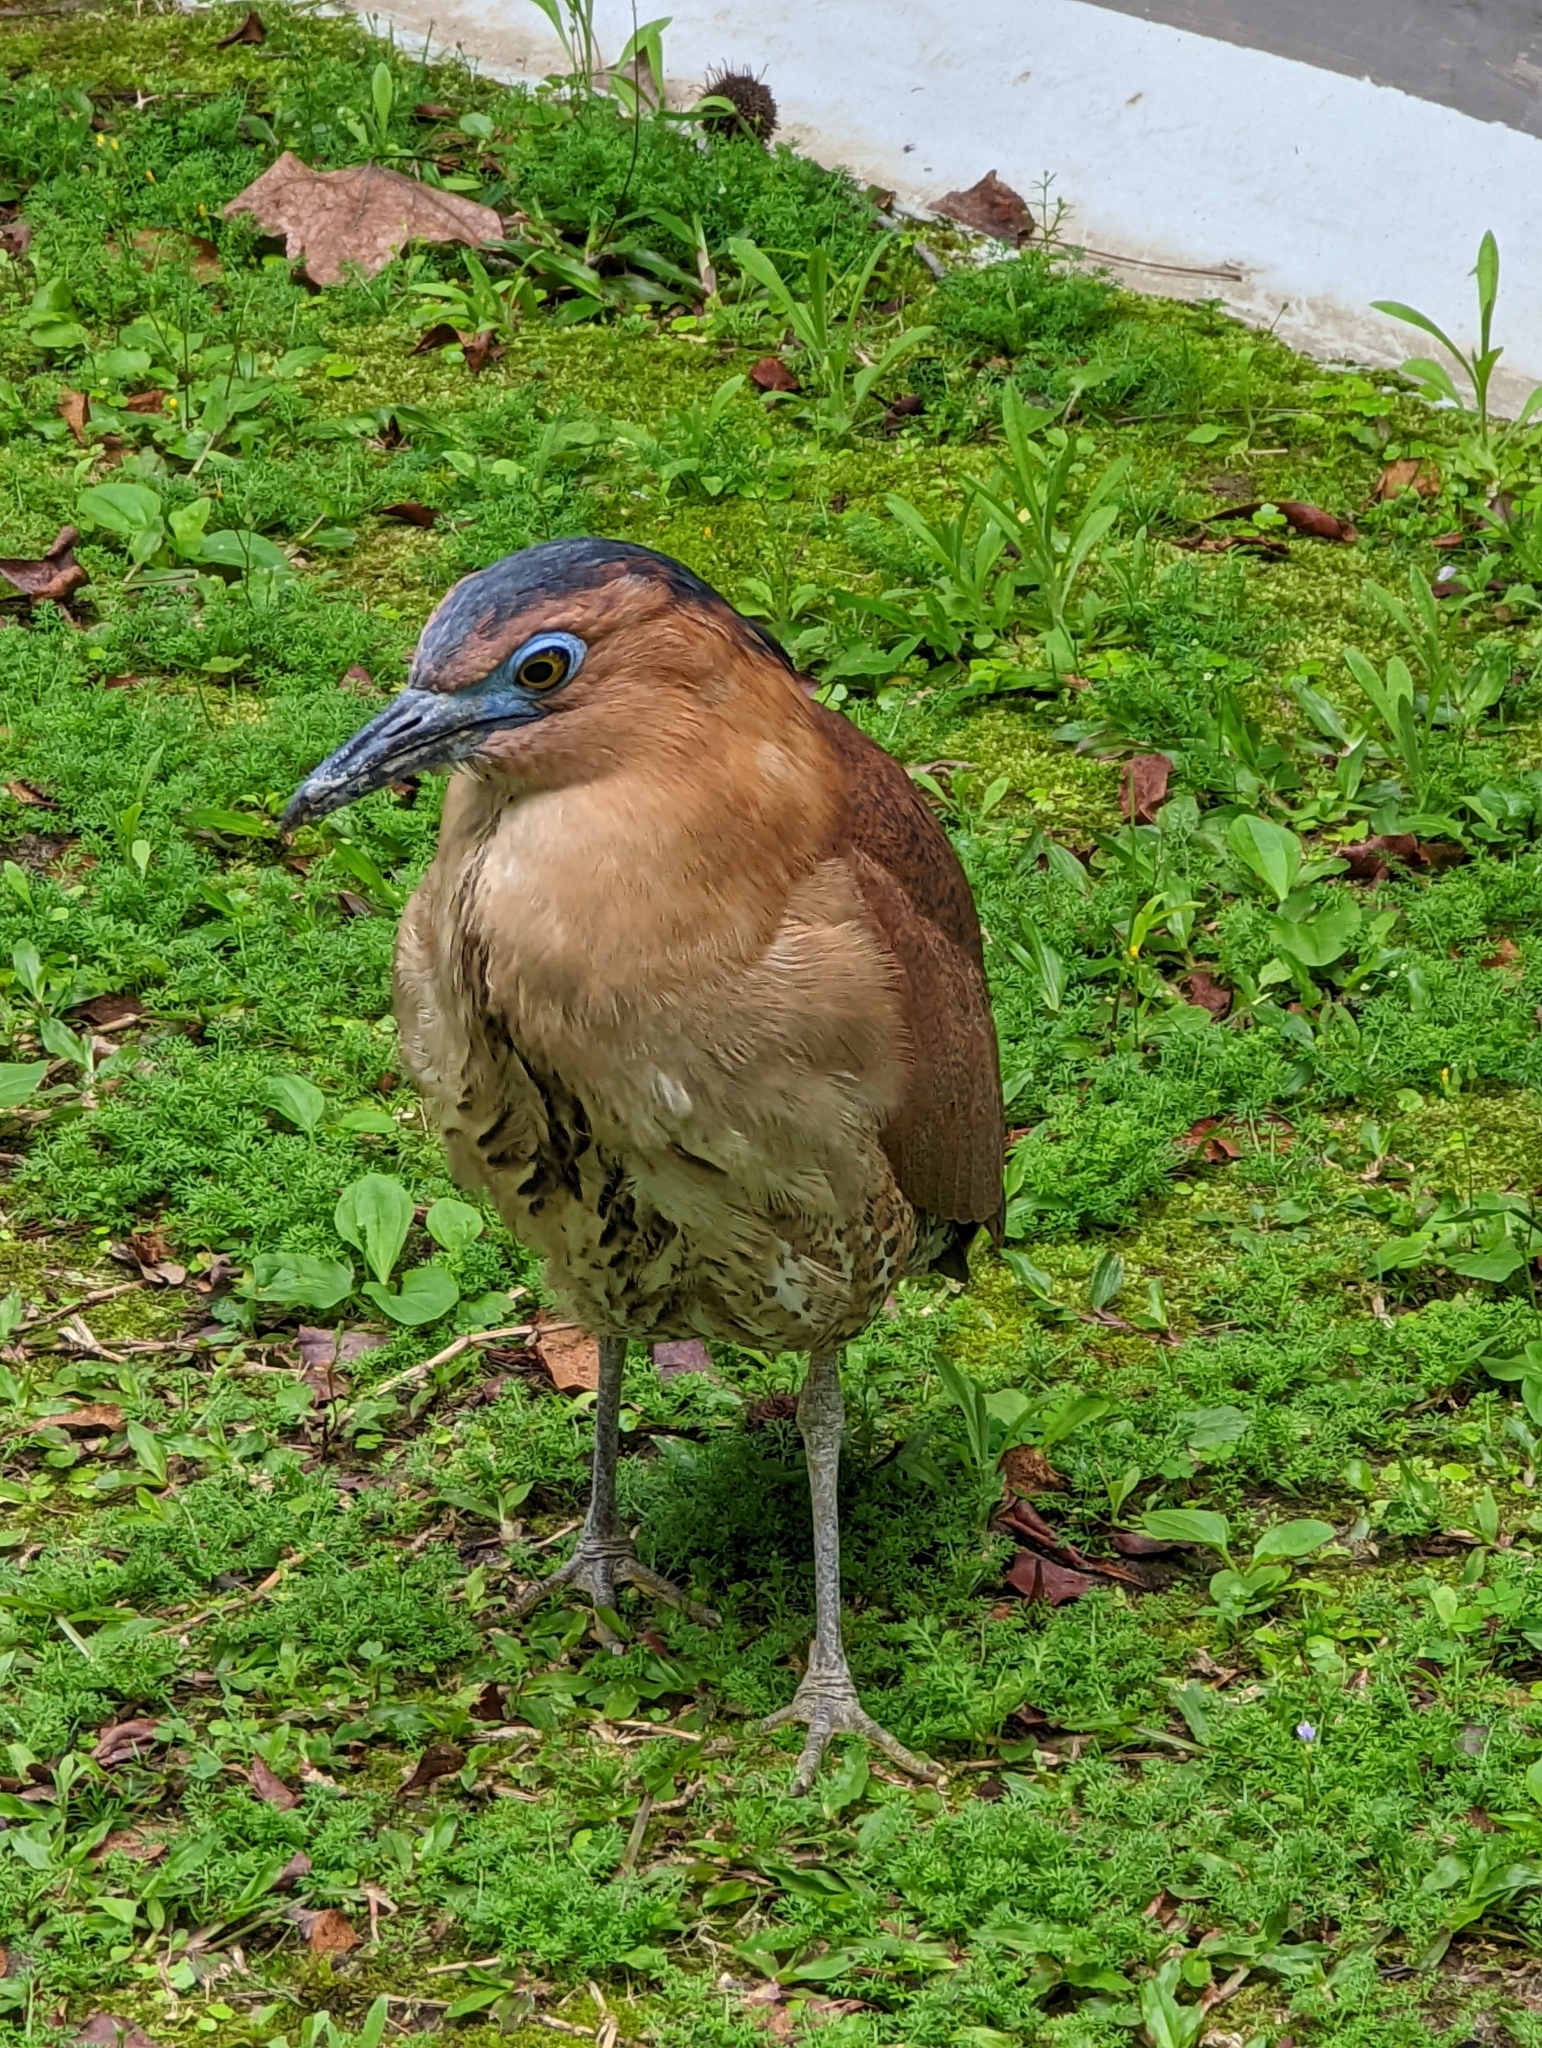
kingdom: Animalia
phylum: Chordata
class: Aves
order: Pelecaniformes
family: Ardeidae
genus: Gorsachius
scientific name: Gorsachius melanolophus
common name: Malayan night heron
